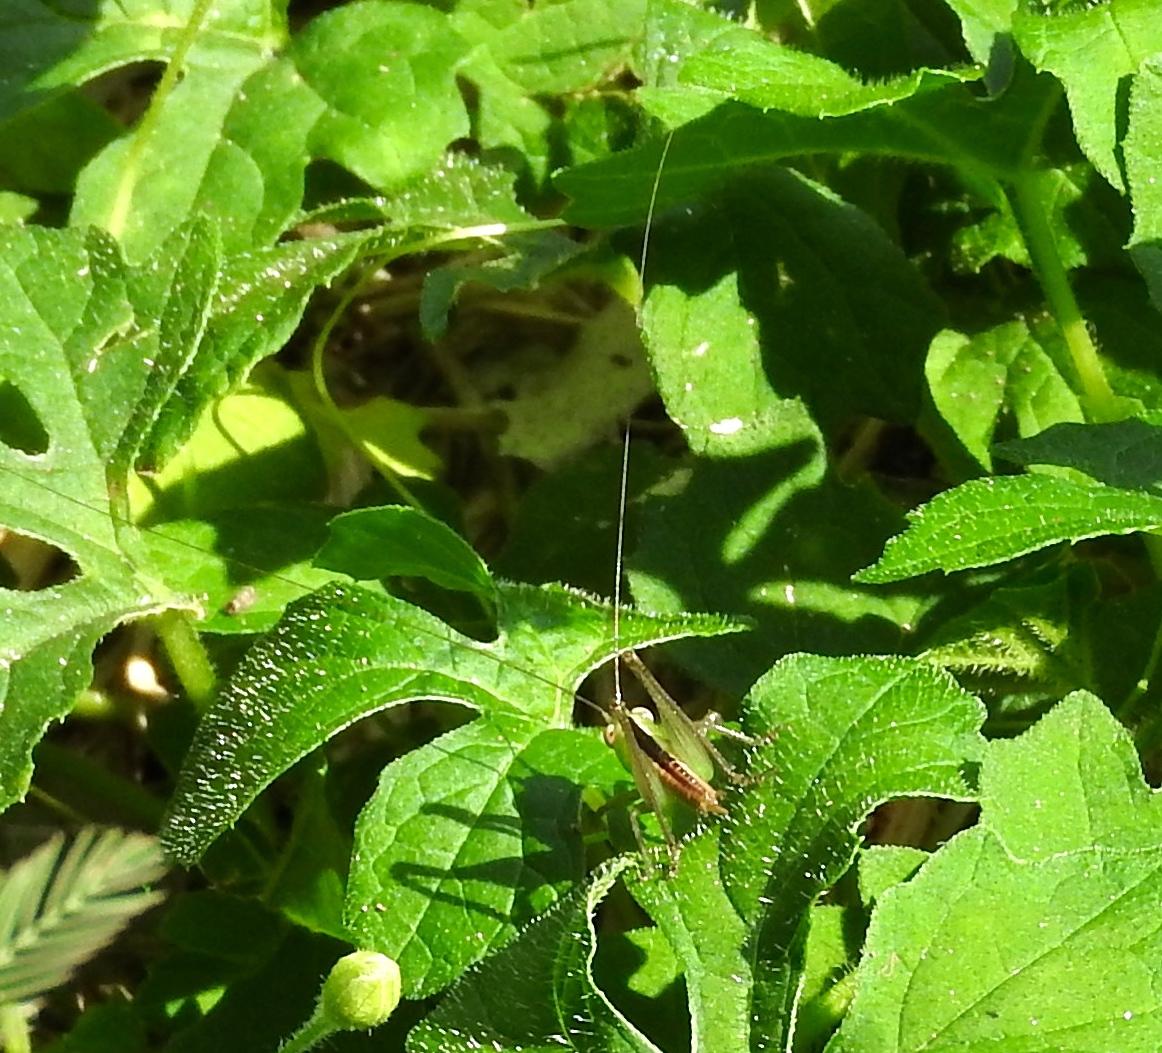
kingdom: Animalia
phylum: Arthropoda
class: Insecta
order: Orthoptera
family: Tettigoniidae
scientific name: Tettigoniidae
